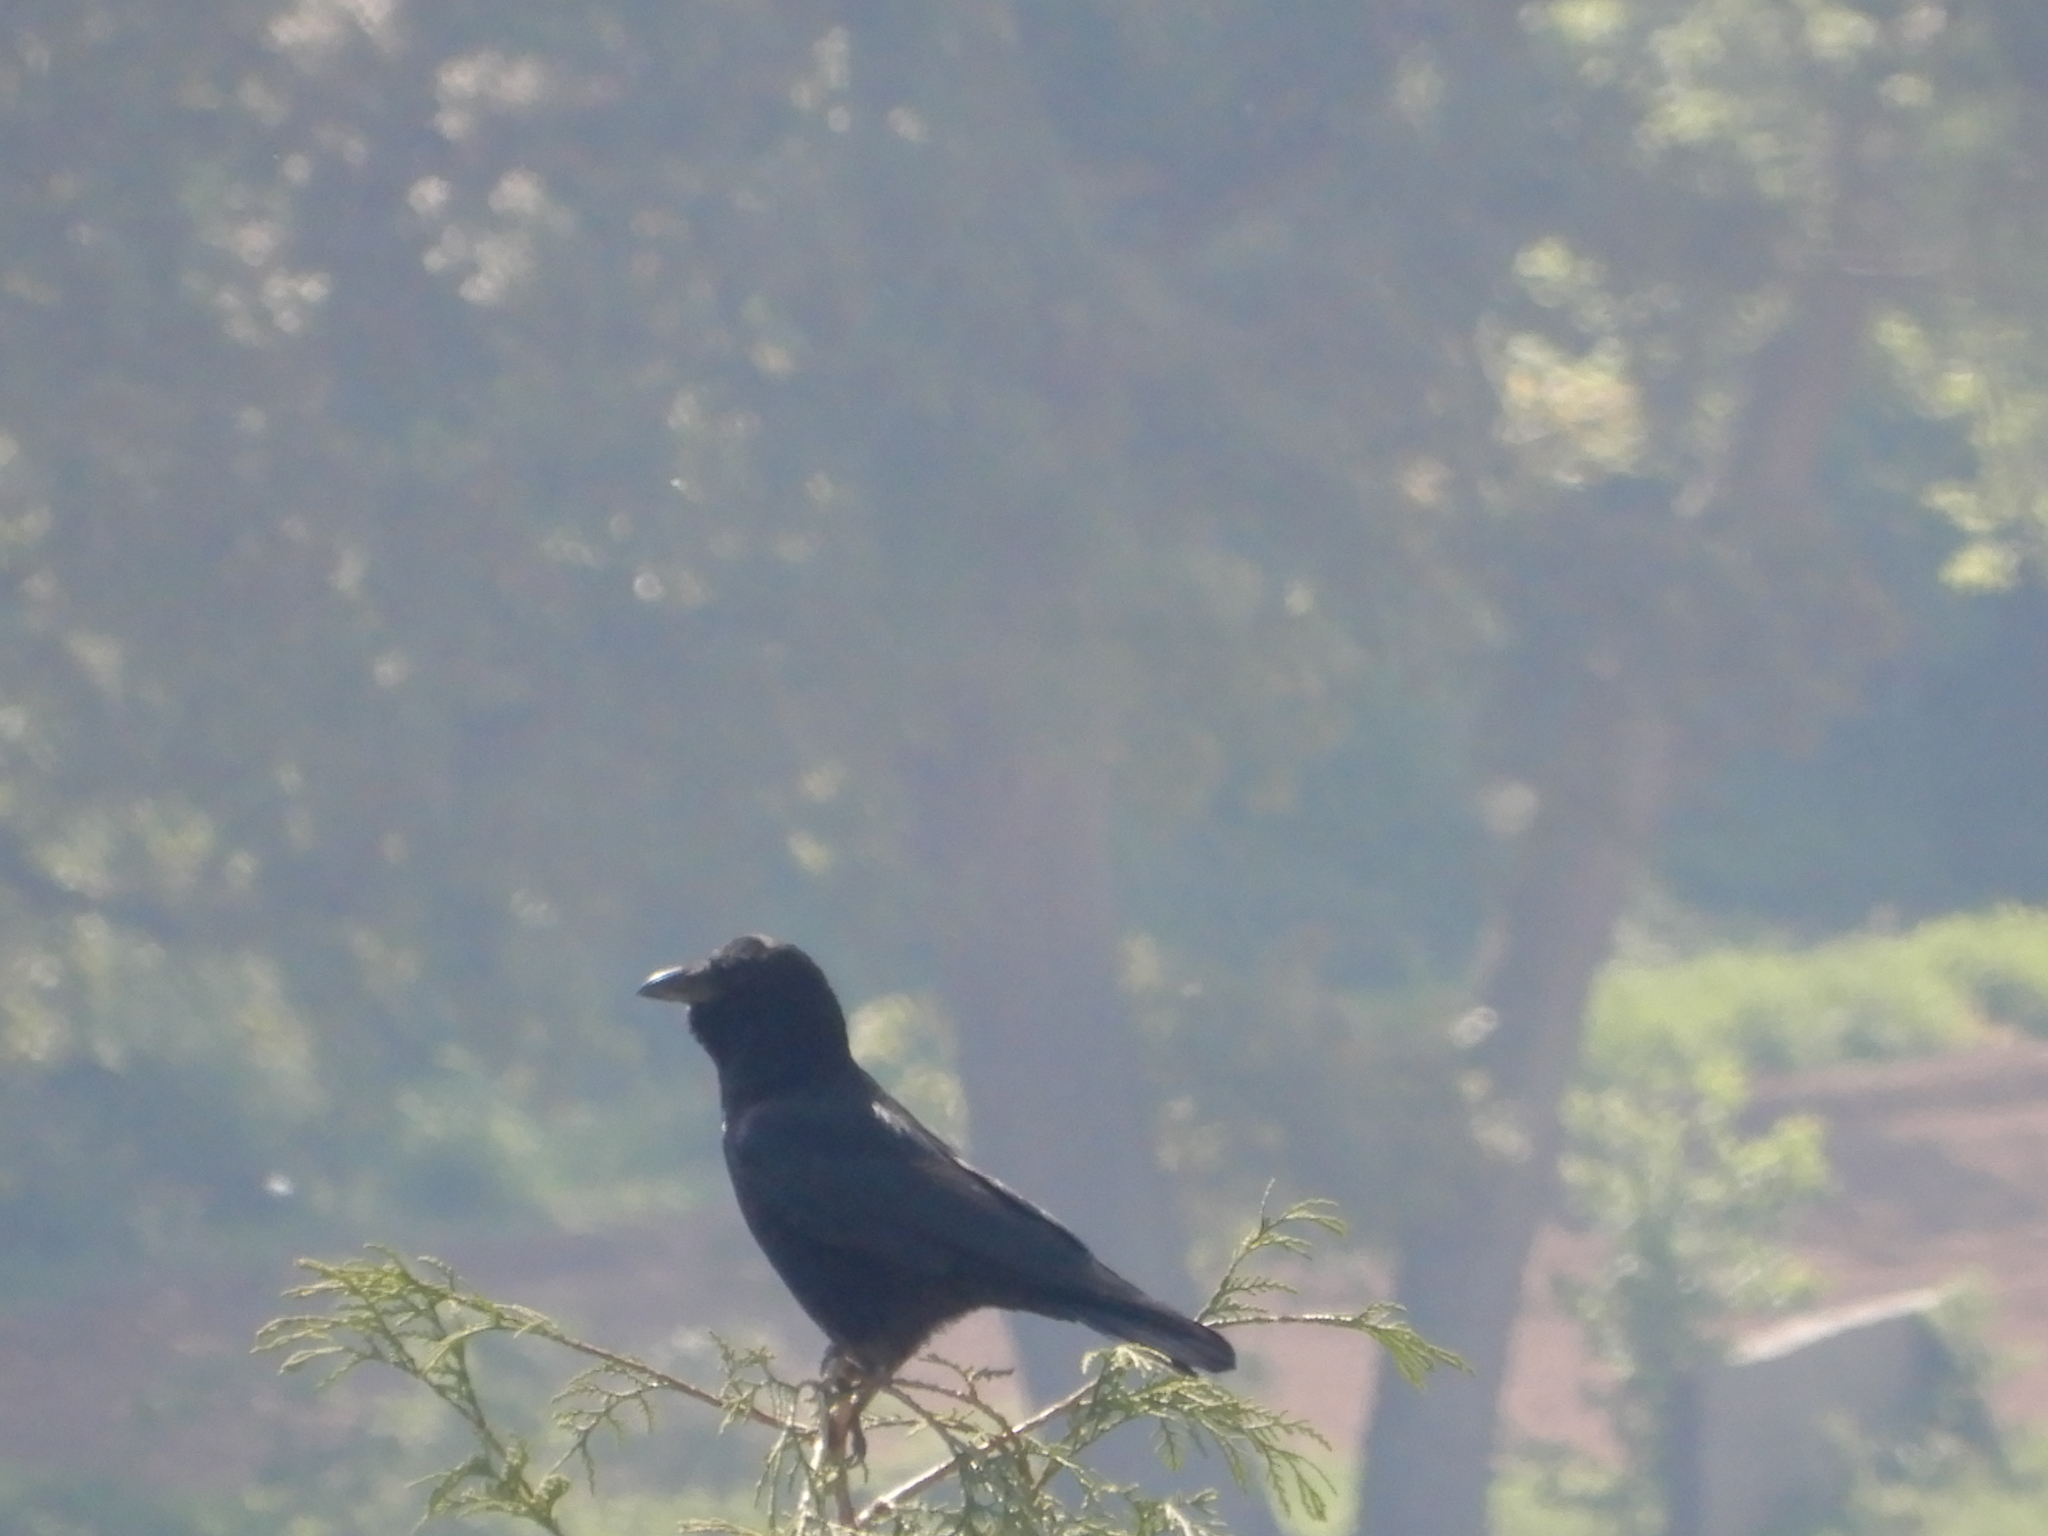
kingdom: Animalia
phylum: Chordata
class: Aves
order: Passeriformes
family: Corvidae
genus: Corvus
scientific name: Corvus corone
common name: Carrion crow
